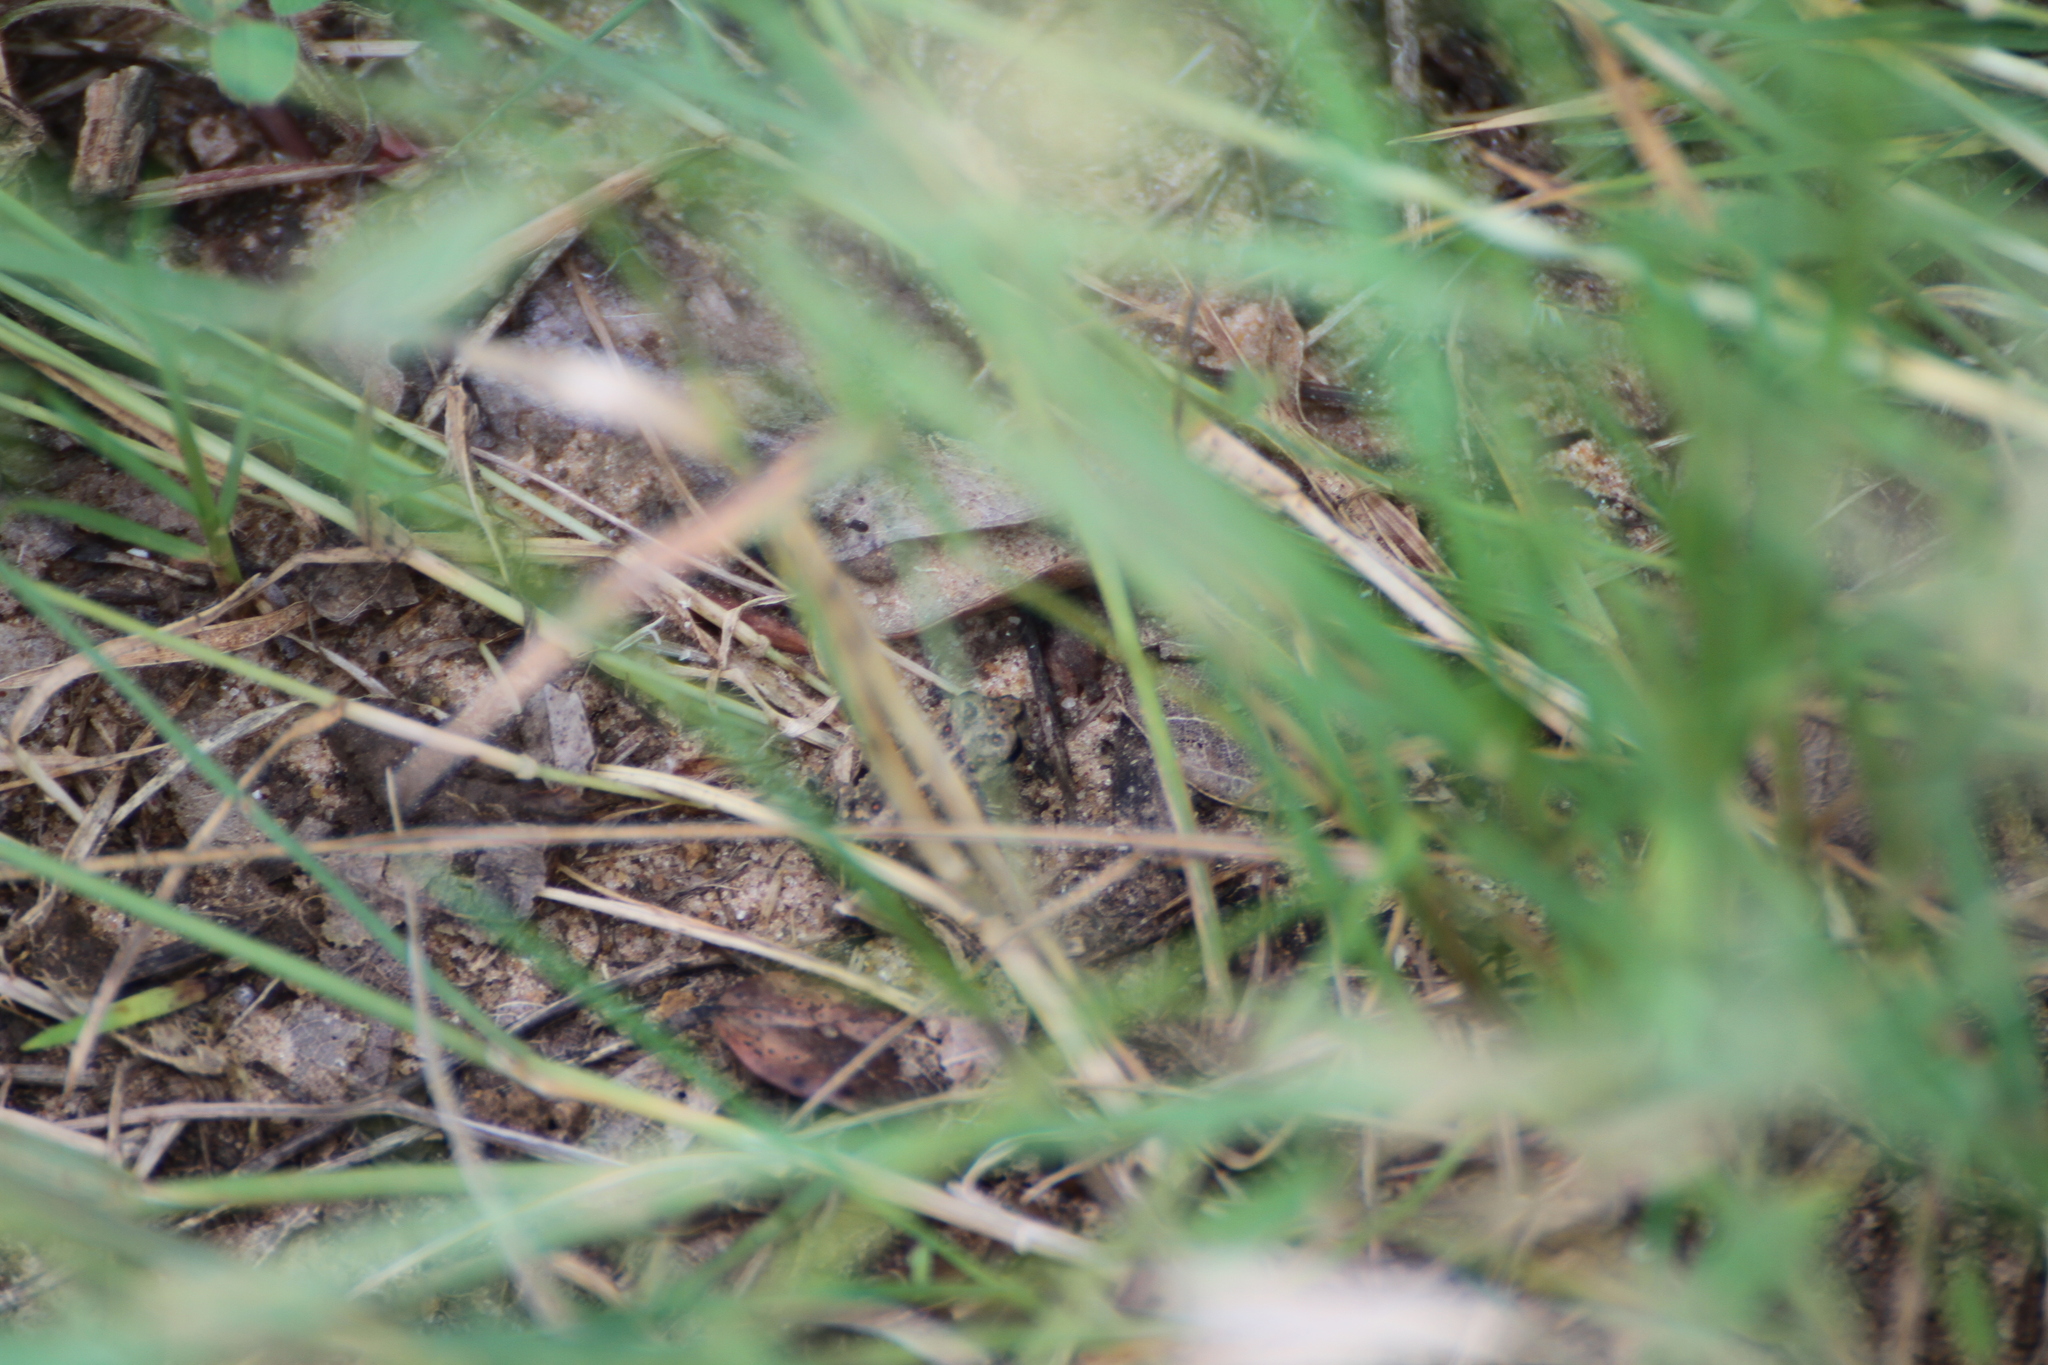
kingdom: Animalia
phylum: Chordata
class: Amphibia
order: Anura
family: Bufonidae
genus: Epidalea
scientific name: Epidalea calamita
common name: Natterjack toad
